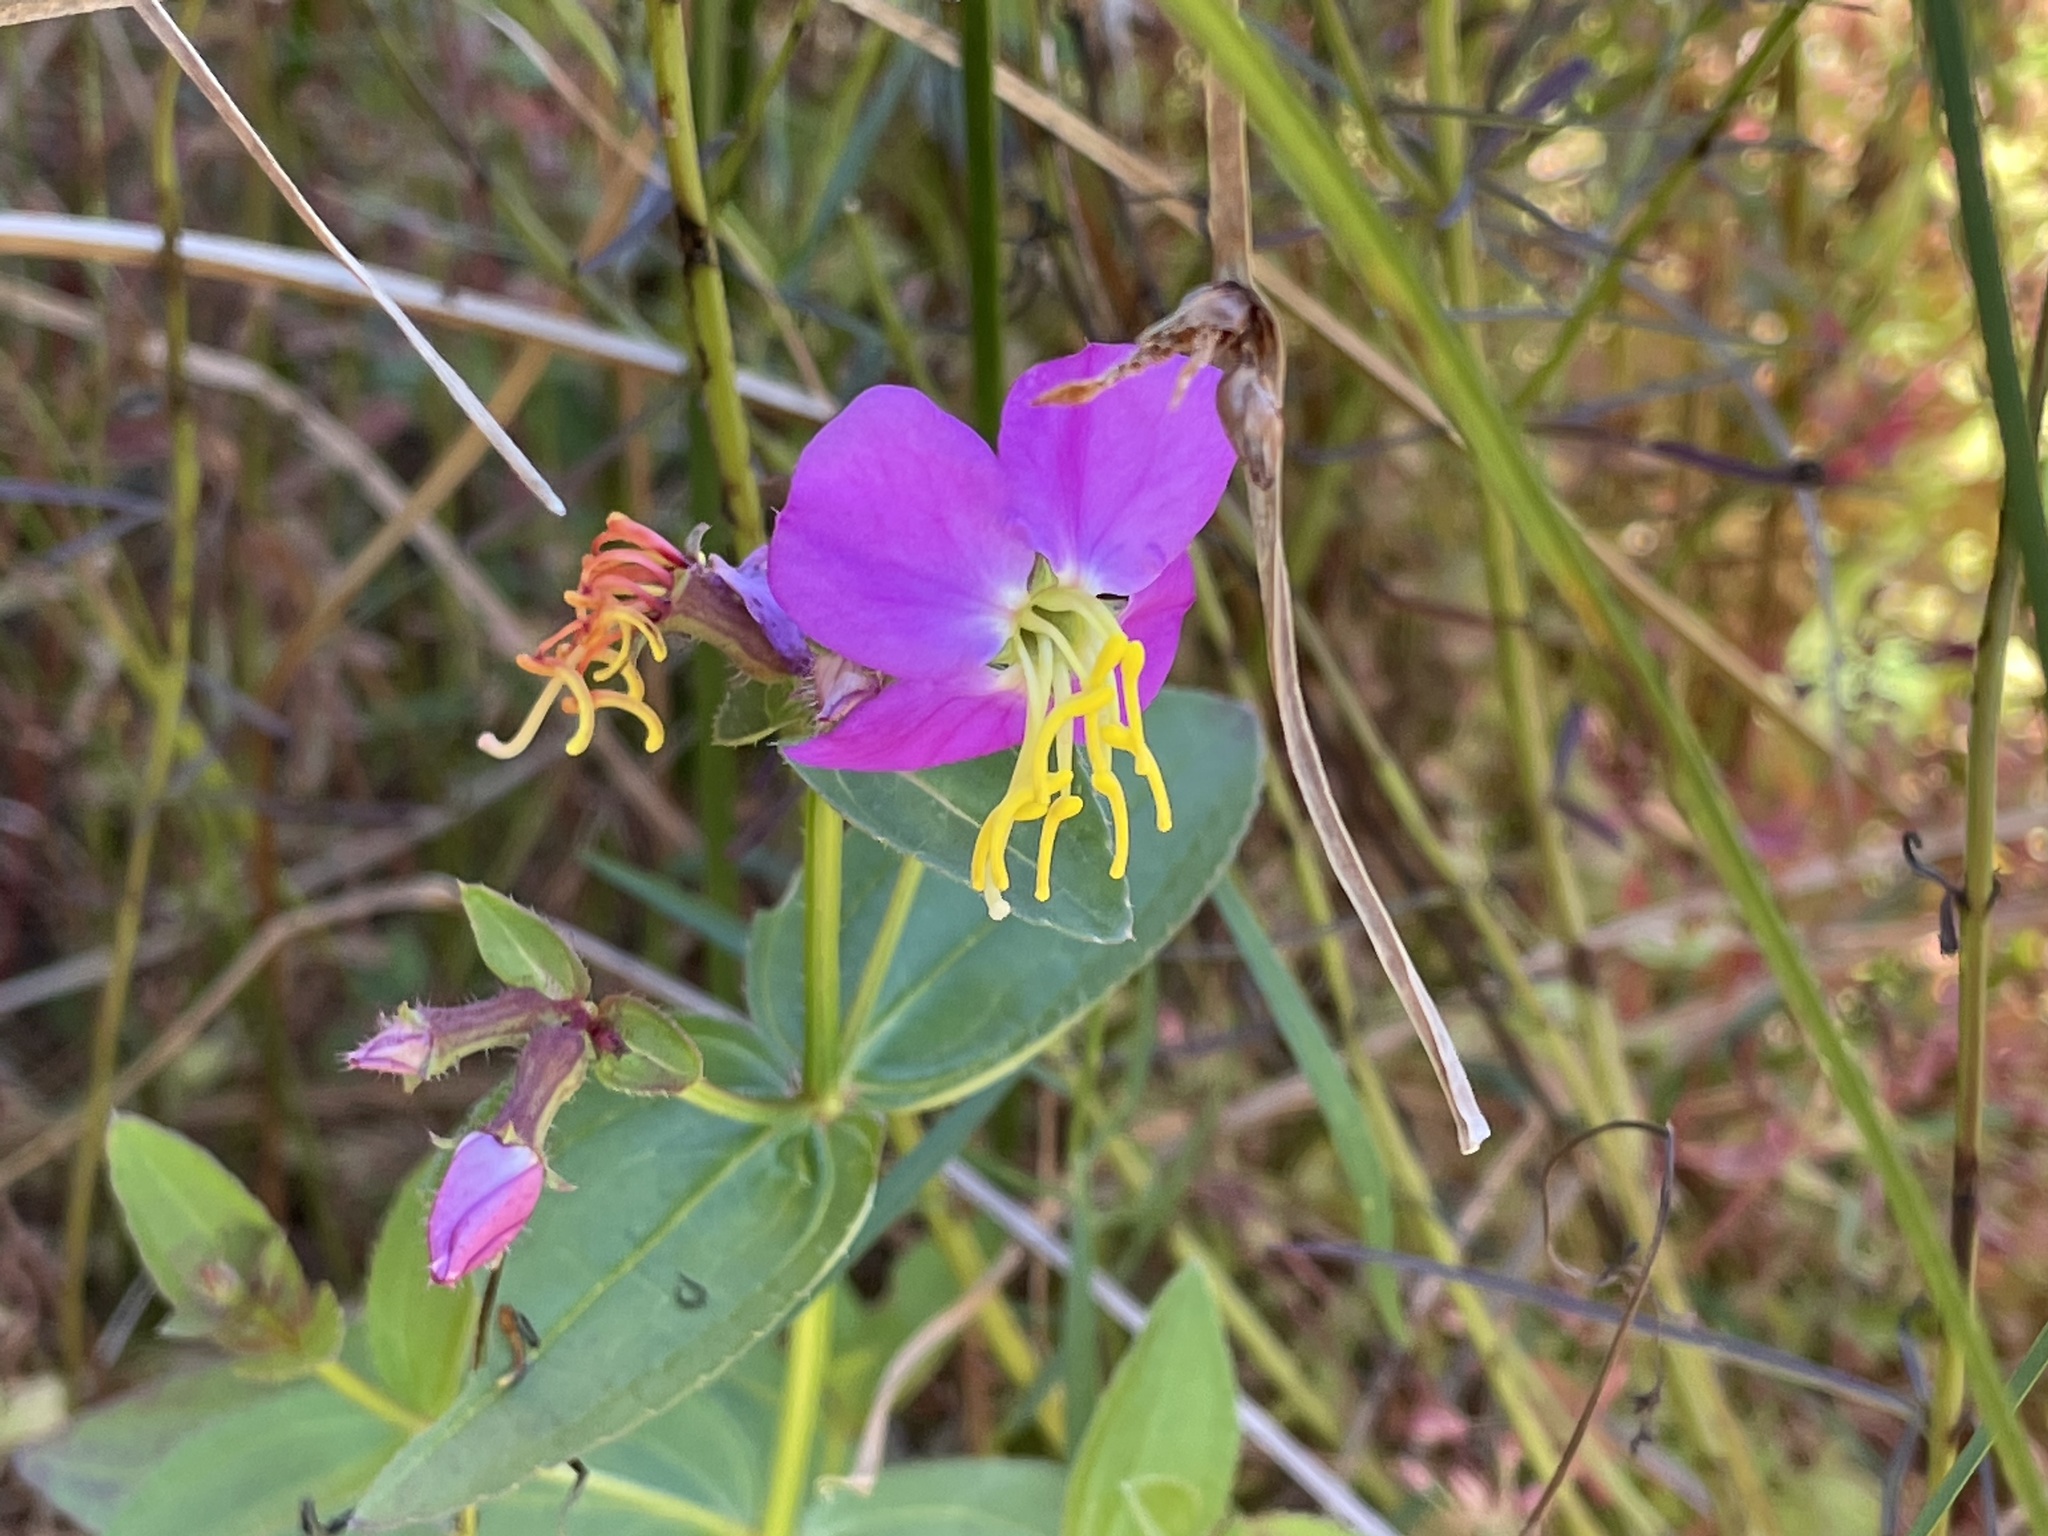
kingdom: Plantae
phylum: Tracheophyta
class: Magnoliopsida
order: Myrtales
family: Melastomataceae
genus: Rhexia
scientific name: Rhexia virginica
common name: Common meadow beauty
